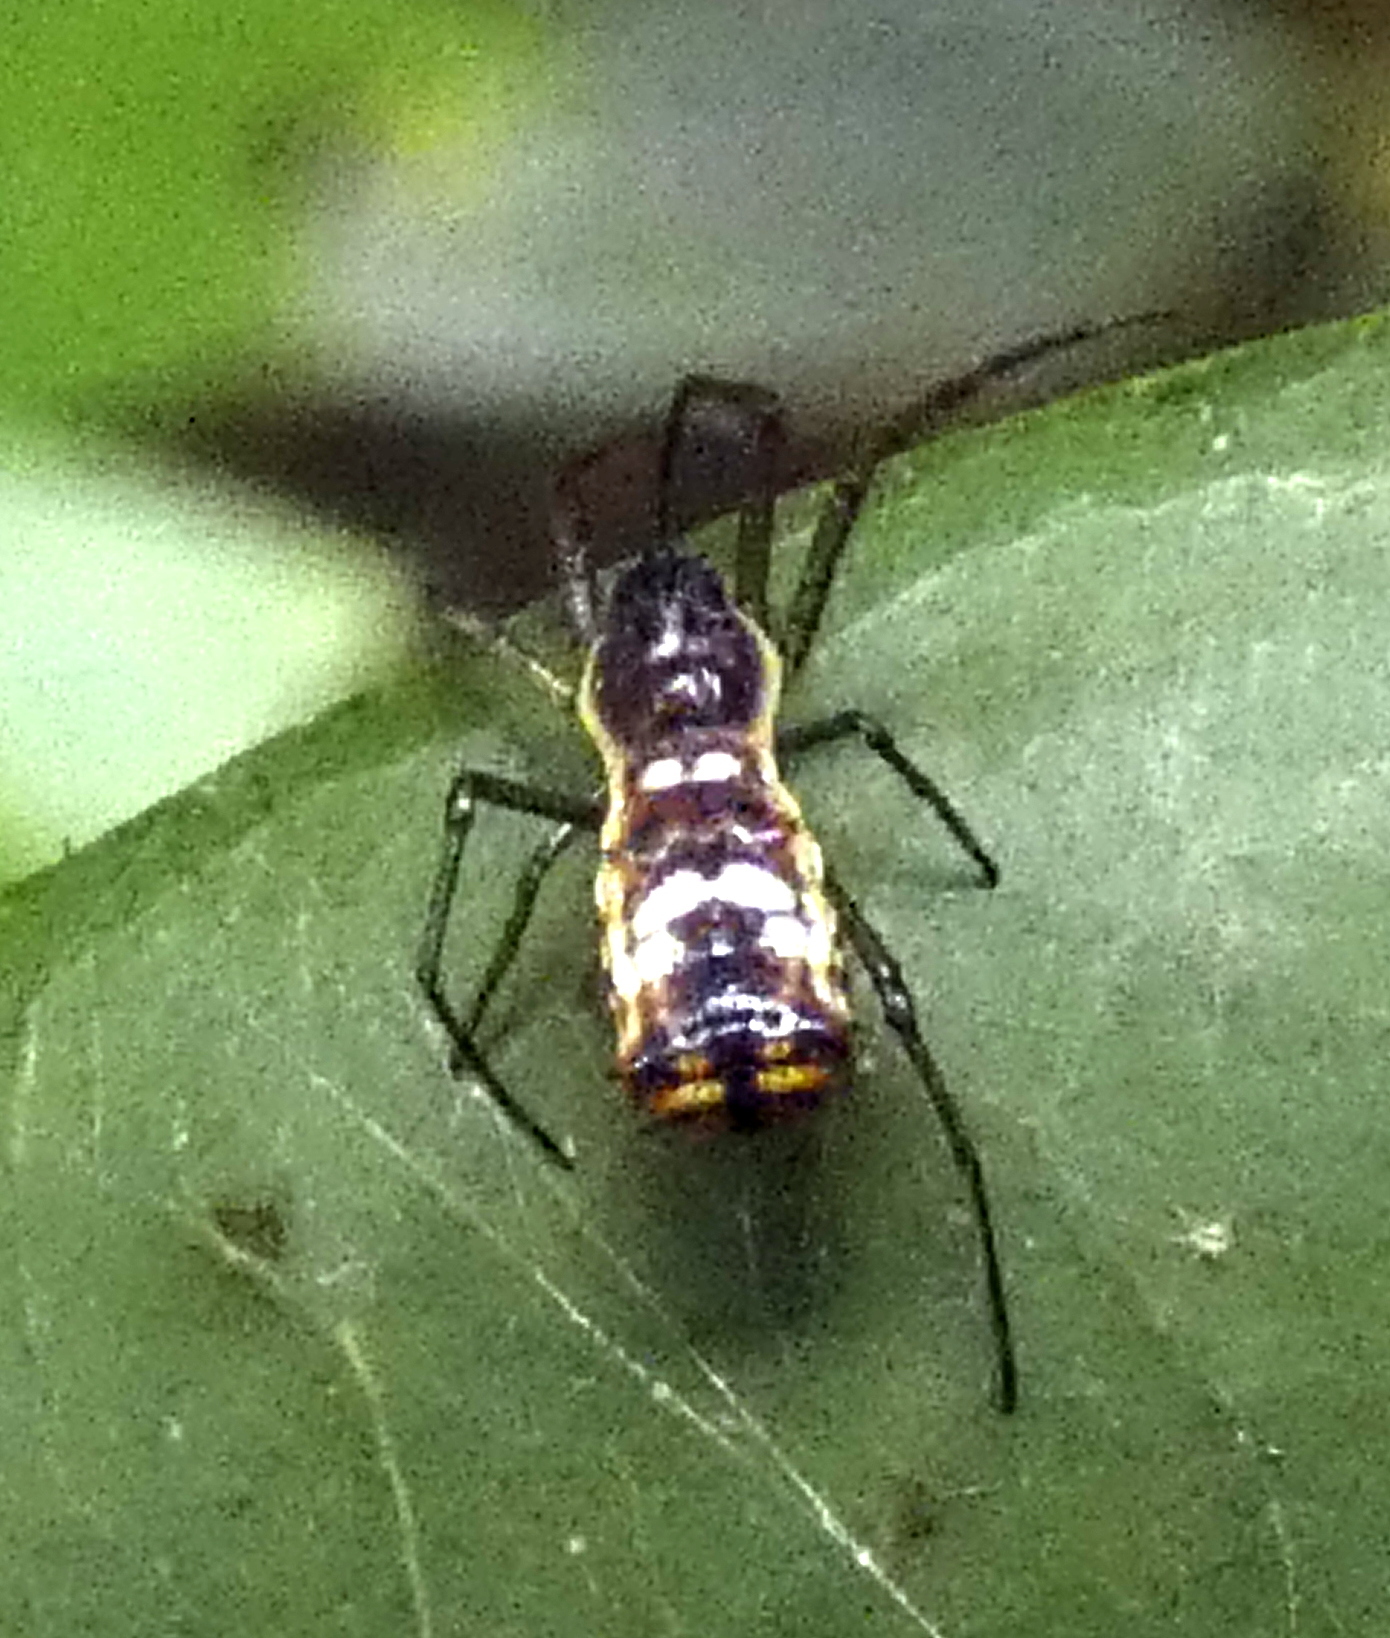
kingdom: Animalia
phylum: Arthropoda
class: Arachnida
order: Araneae
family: Araneidae
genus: Micrathena
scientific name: Micrathena fissispina
